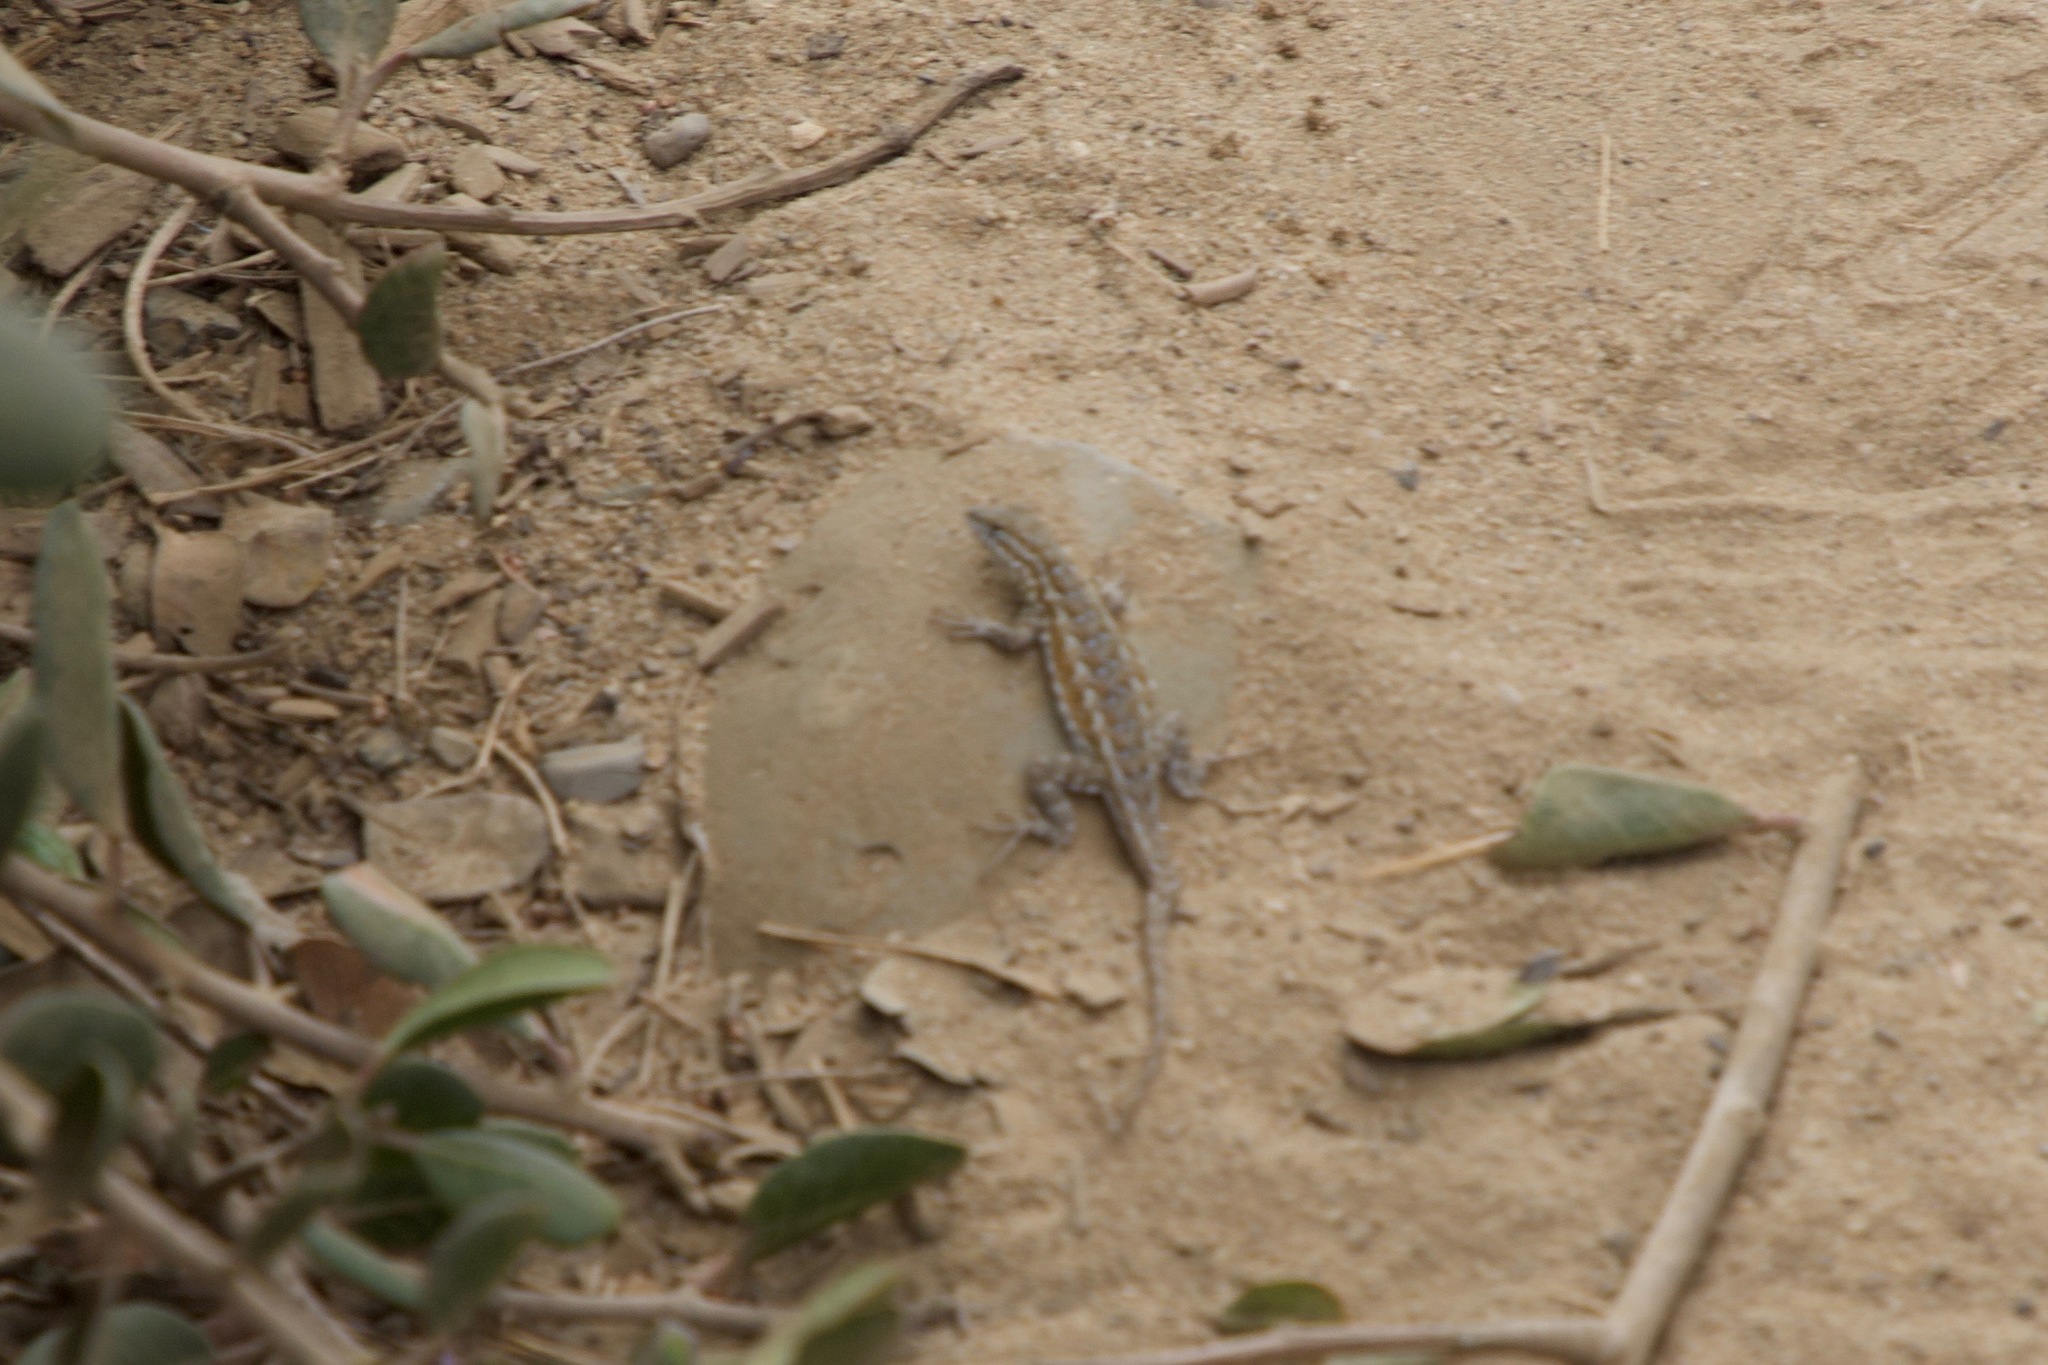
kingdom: Animalia
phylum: Chordata
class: Squamata
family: Phrynosomatidae
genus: Uta
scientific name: Uta stansburiana
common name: Side-blotched lizard
